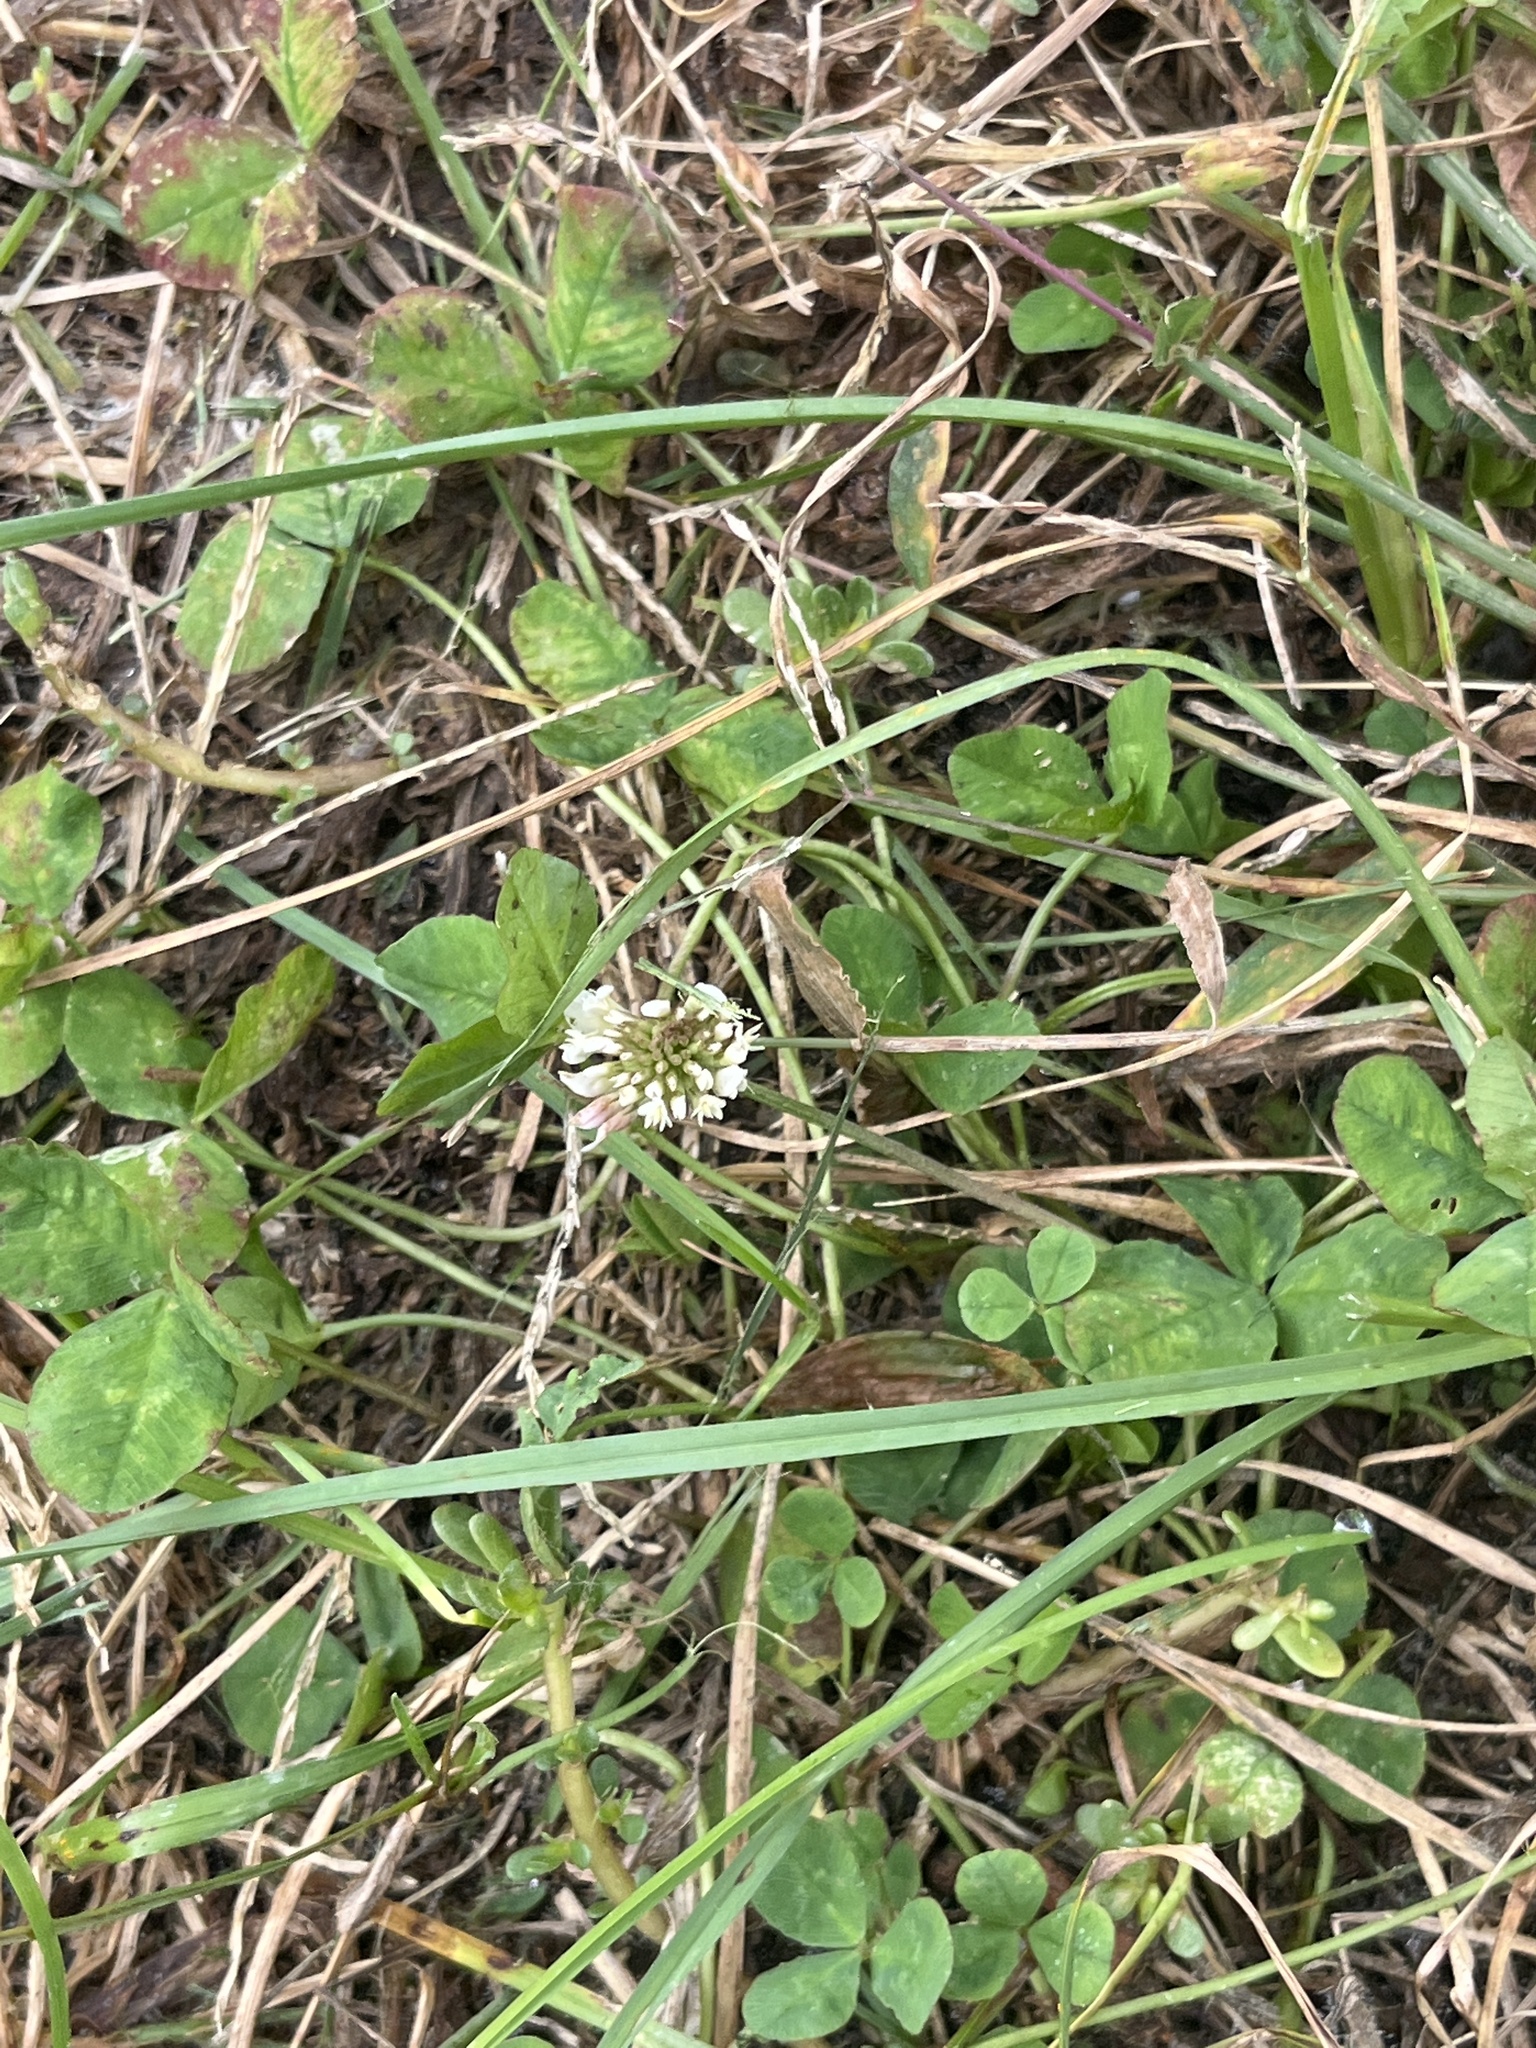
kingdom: Plantae
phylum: Tracheophyta
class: Magnoliopsida
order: Fabales
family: Fabaceae
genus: Trifolium
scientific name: Trifolium repens
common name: White clover
